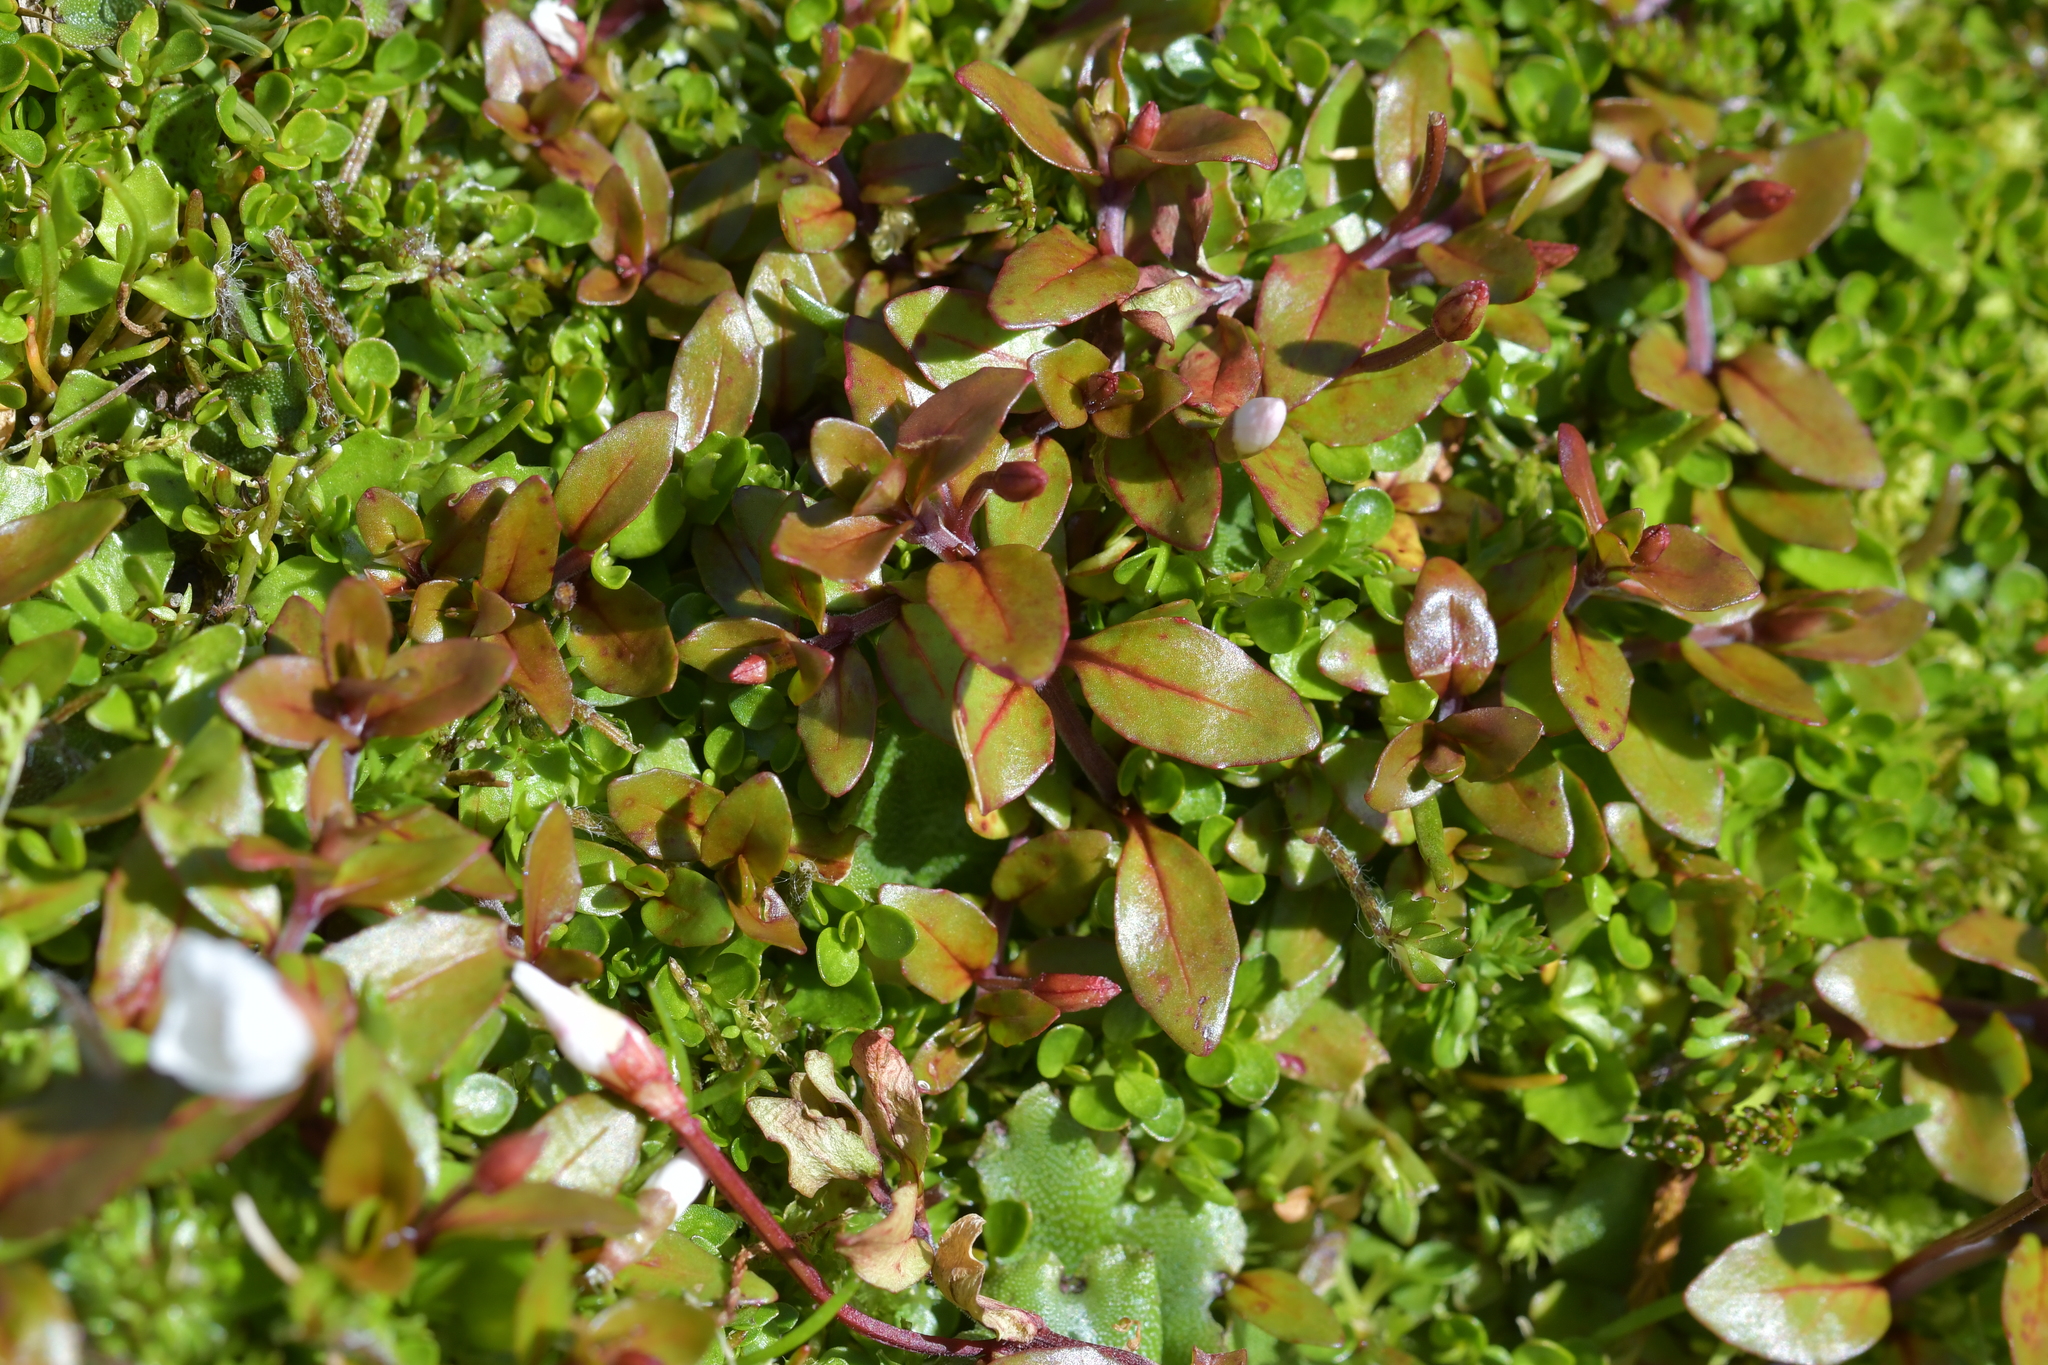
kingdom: Plantae
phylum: Tracheophyta
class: Magnoliopsida
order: Myrtales
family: Onagraceae
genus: Epilobium
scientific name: Epilobium macropus
